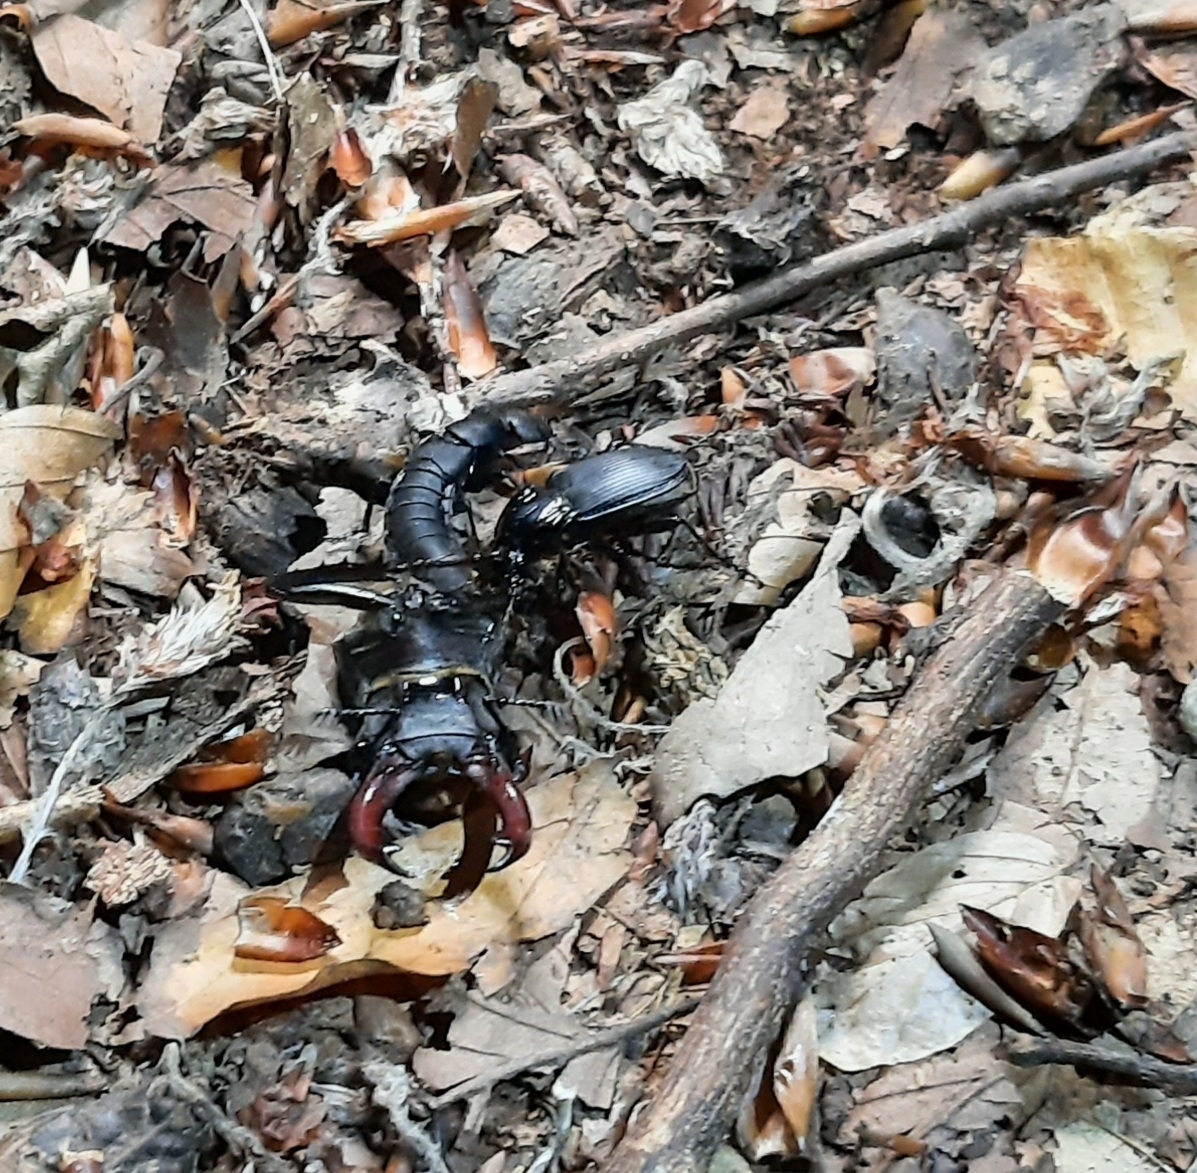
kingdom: Animalia
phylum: Arthropoda
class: Insecta
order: Coleoptera
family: Lucanidae
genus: Lucanus
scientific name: Lucanus cervus
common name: Stag beetle
